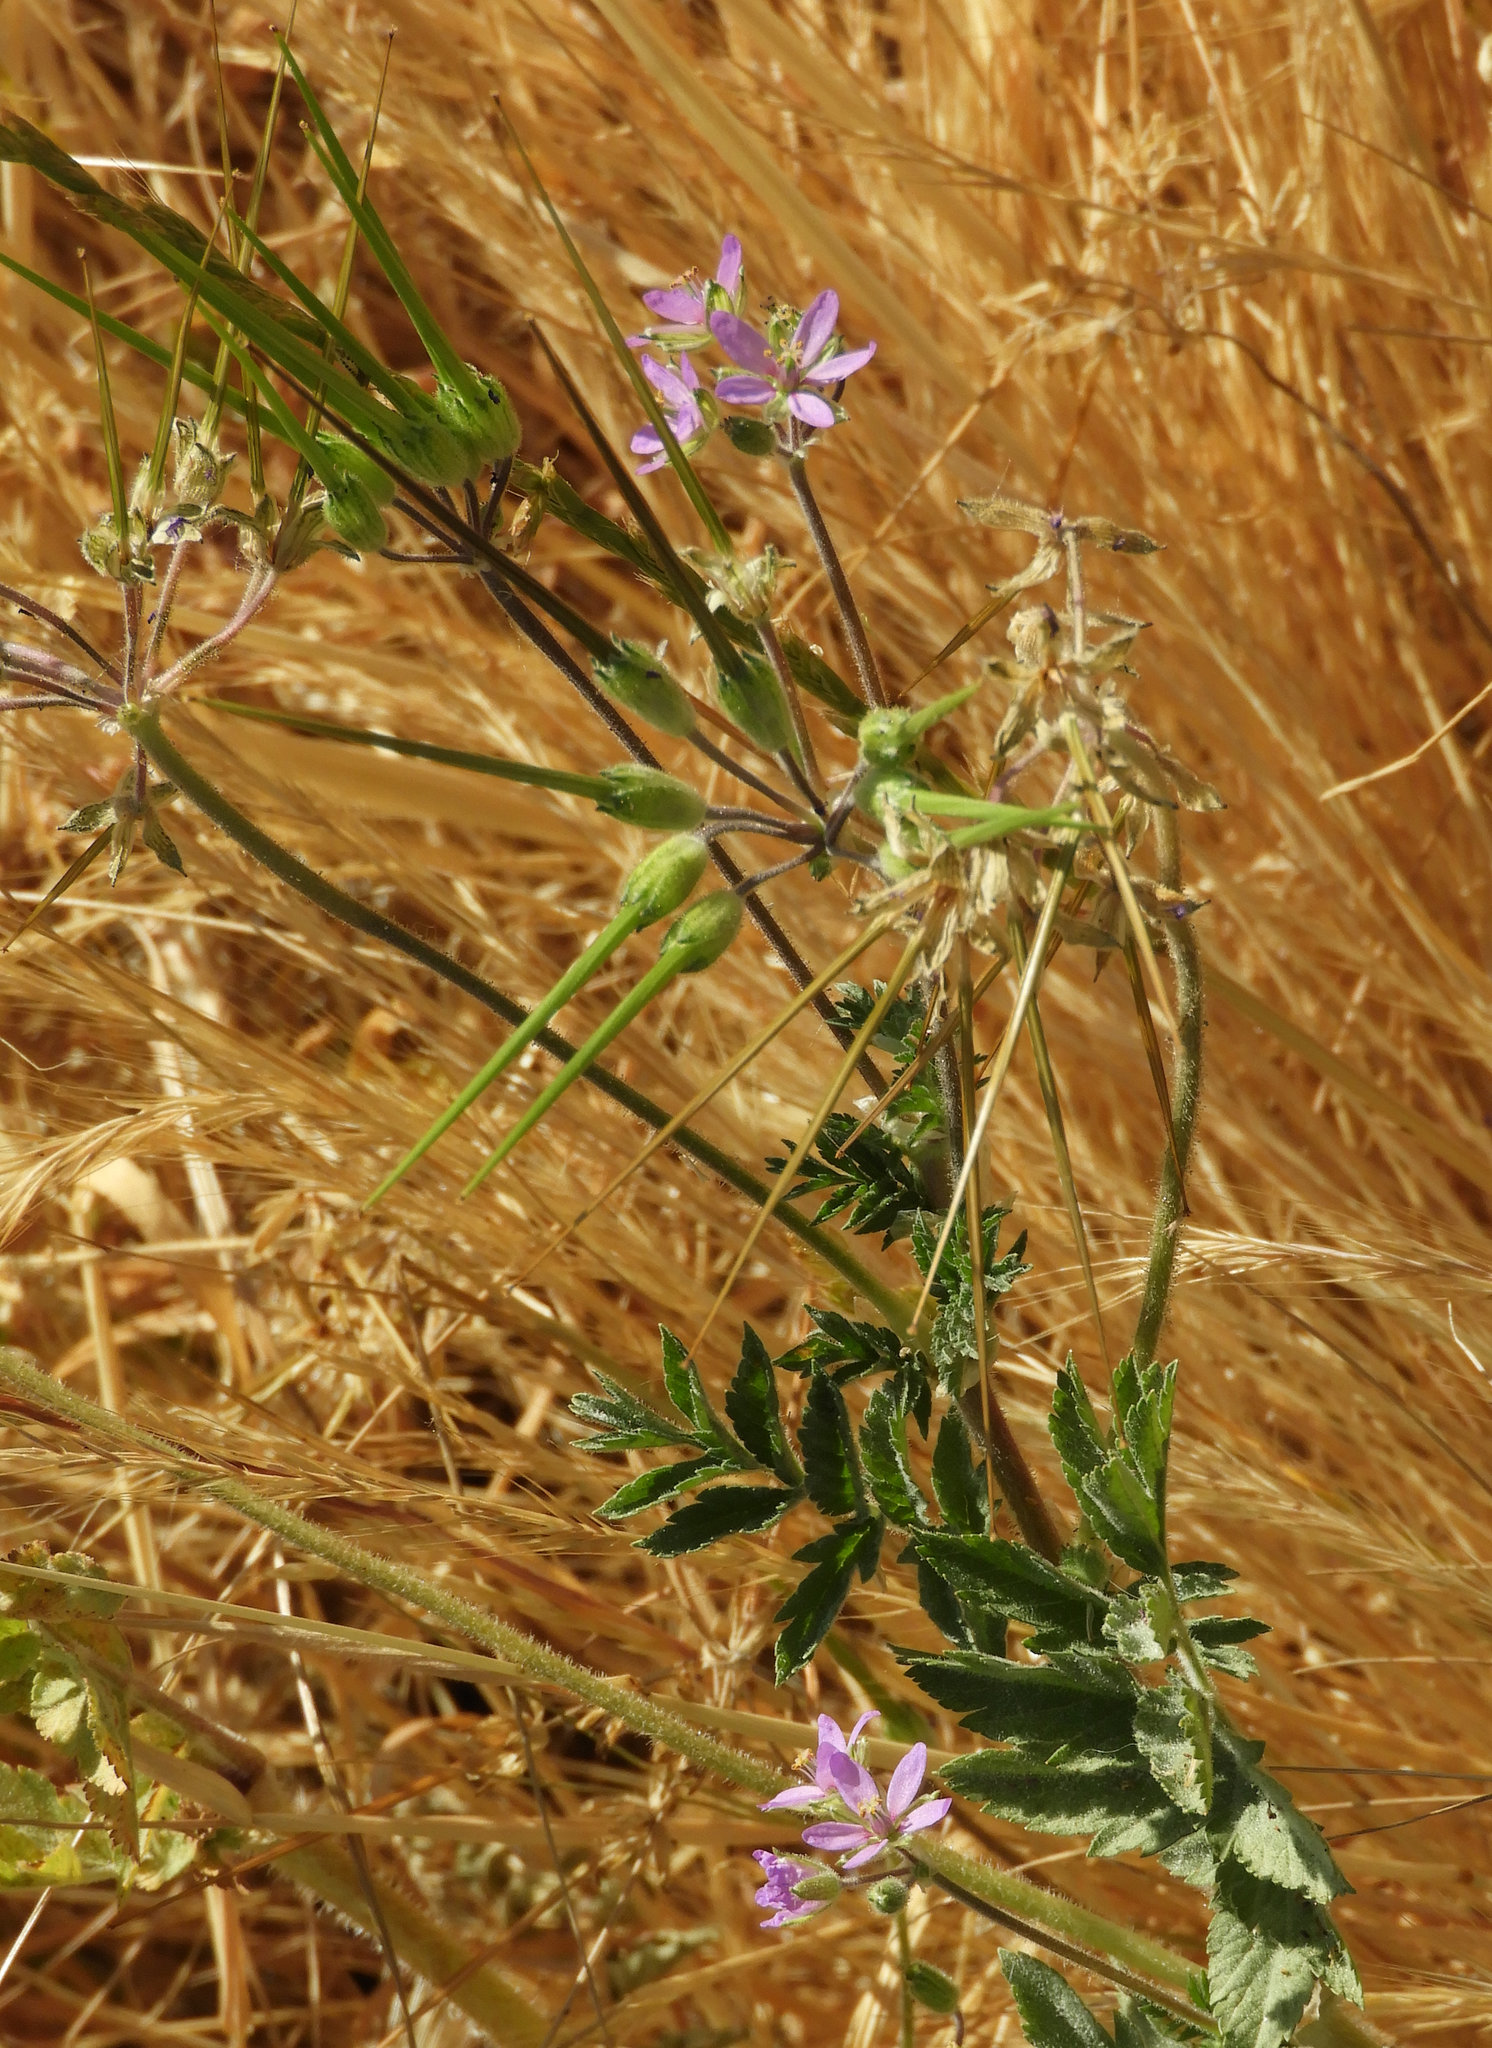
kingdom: Plantae
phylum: Tracheophyta
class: Magnoliopsida
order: Geraniales
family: Geraniaceae
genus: Erodium
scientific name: Erodium moschatum
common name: Musk stork's-bill
